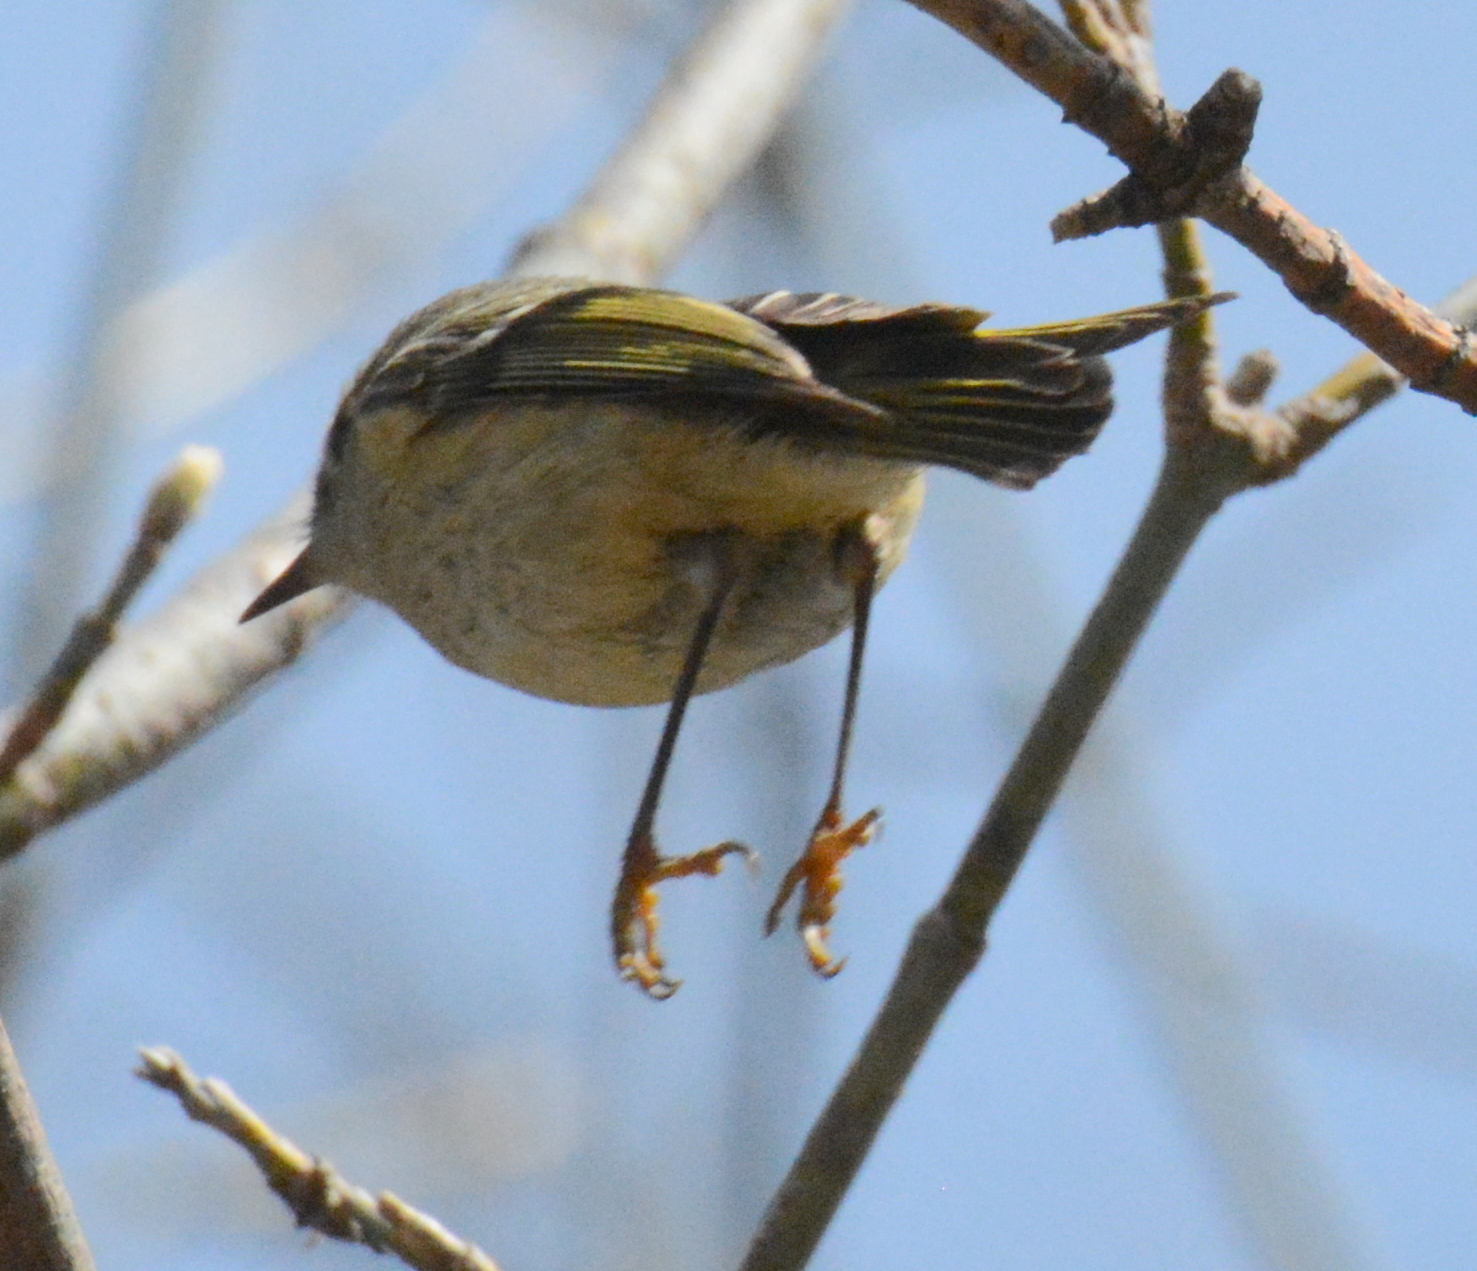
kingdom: Animalia
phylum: Chordata
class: Aves
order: Passeriformes
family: Regulidae
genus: Regulus
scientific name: Regulus calendula
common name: Ruby-crowned kinglet
